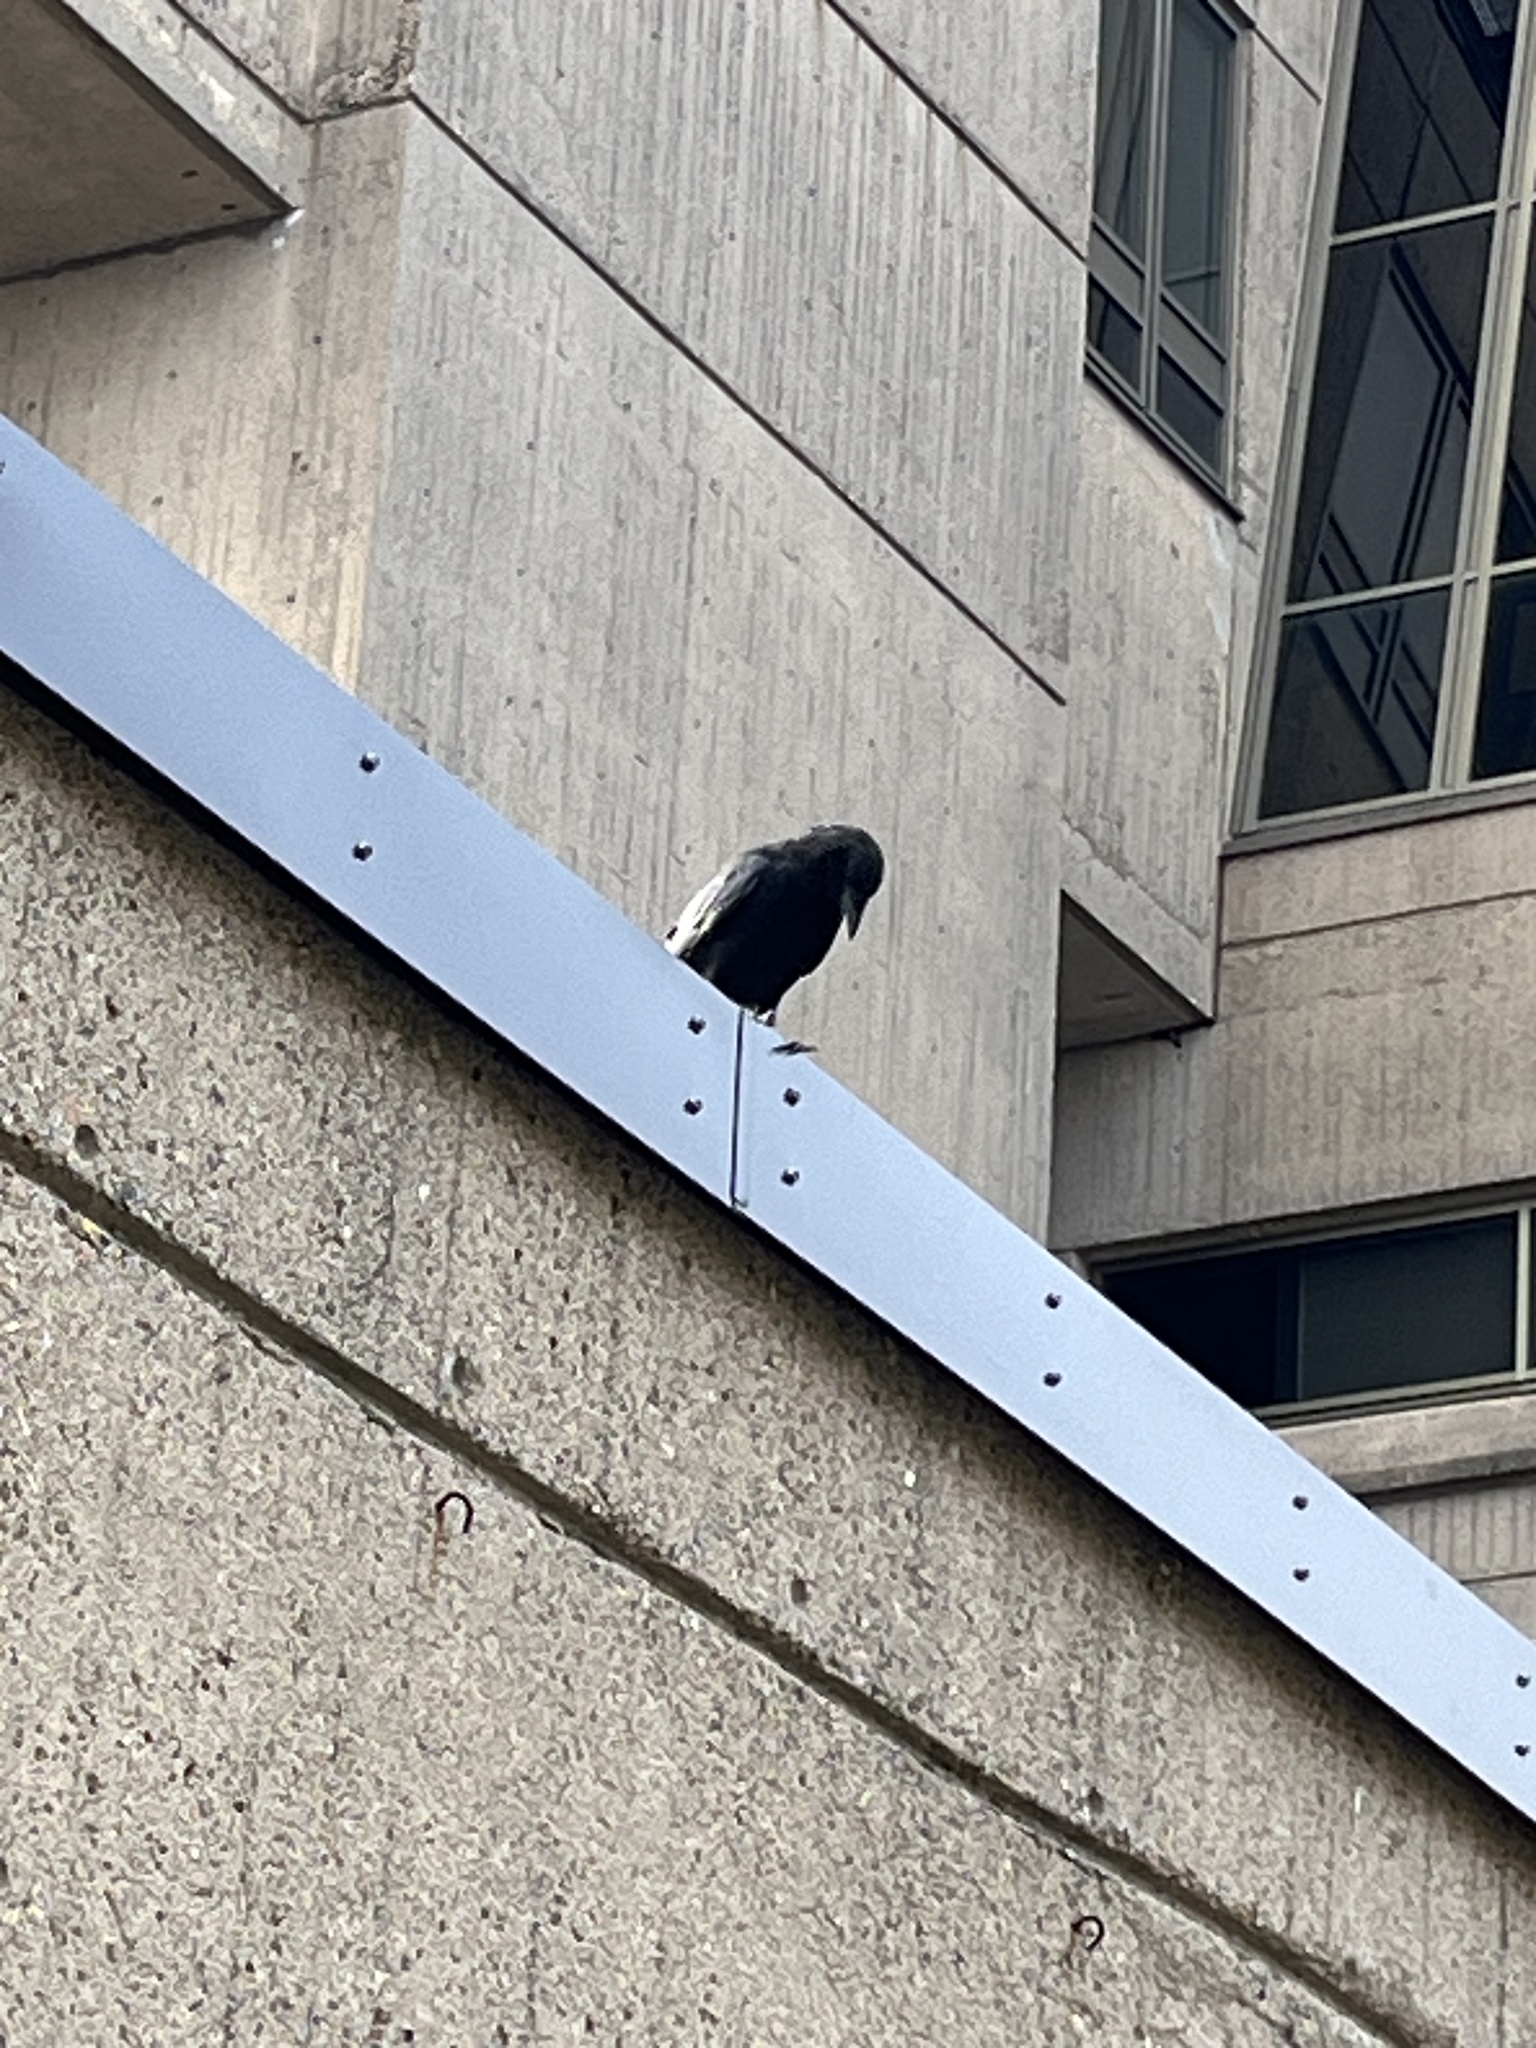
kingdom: Animalia
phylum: Chordata
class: Aves
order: Passeriformes
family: Corvidae
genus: Corvus
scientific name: Corvus brachyrhynchos
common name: American crow
